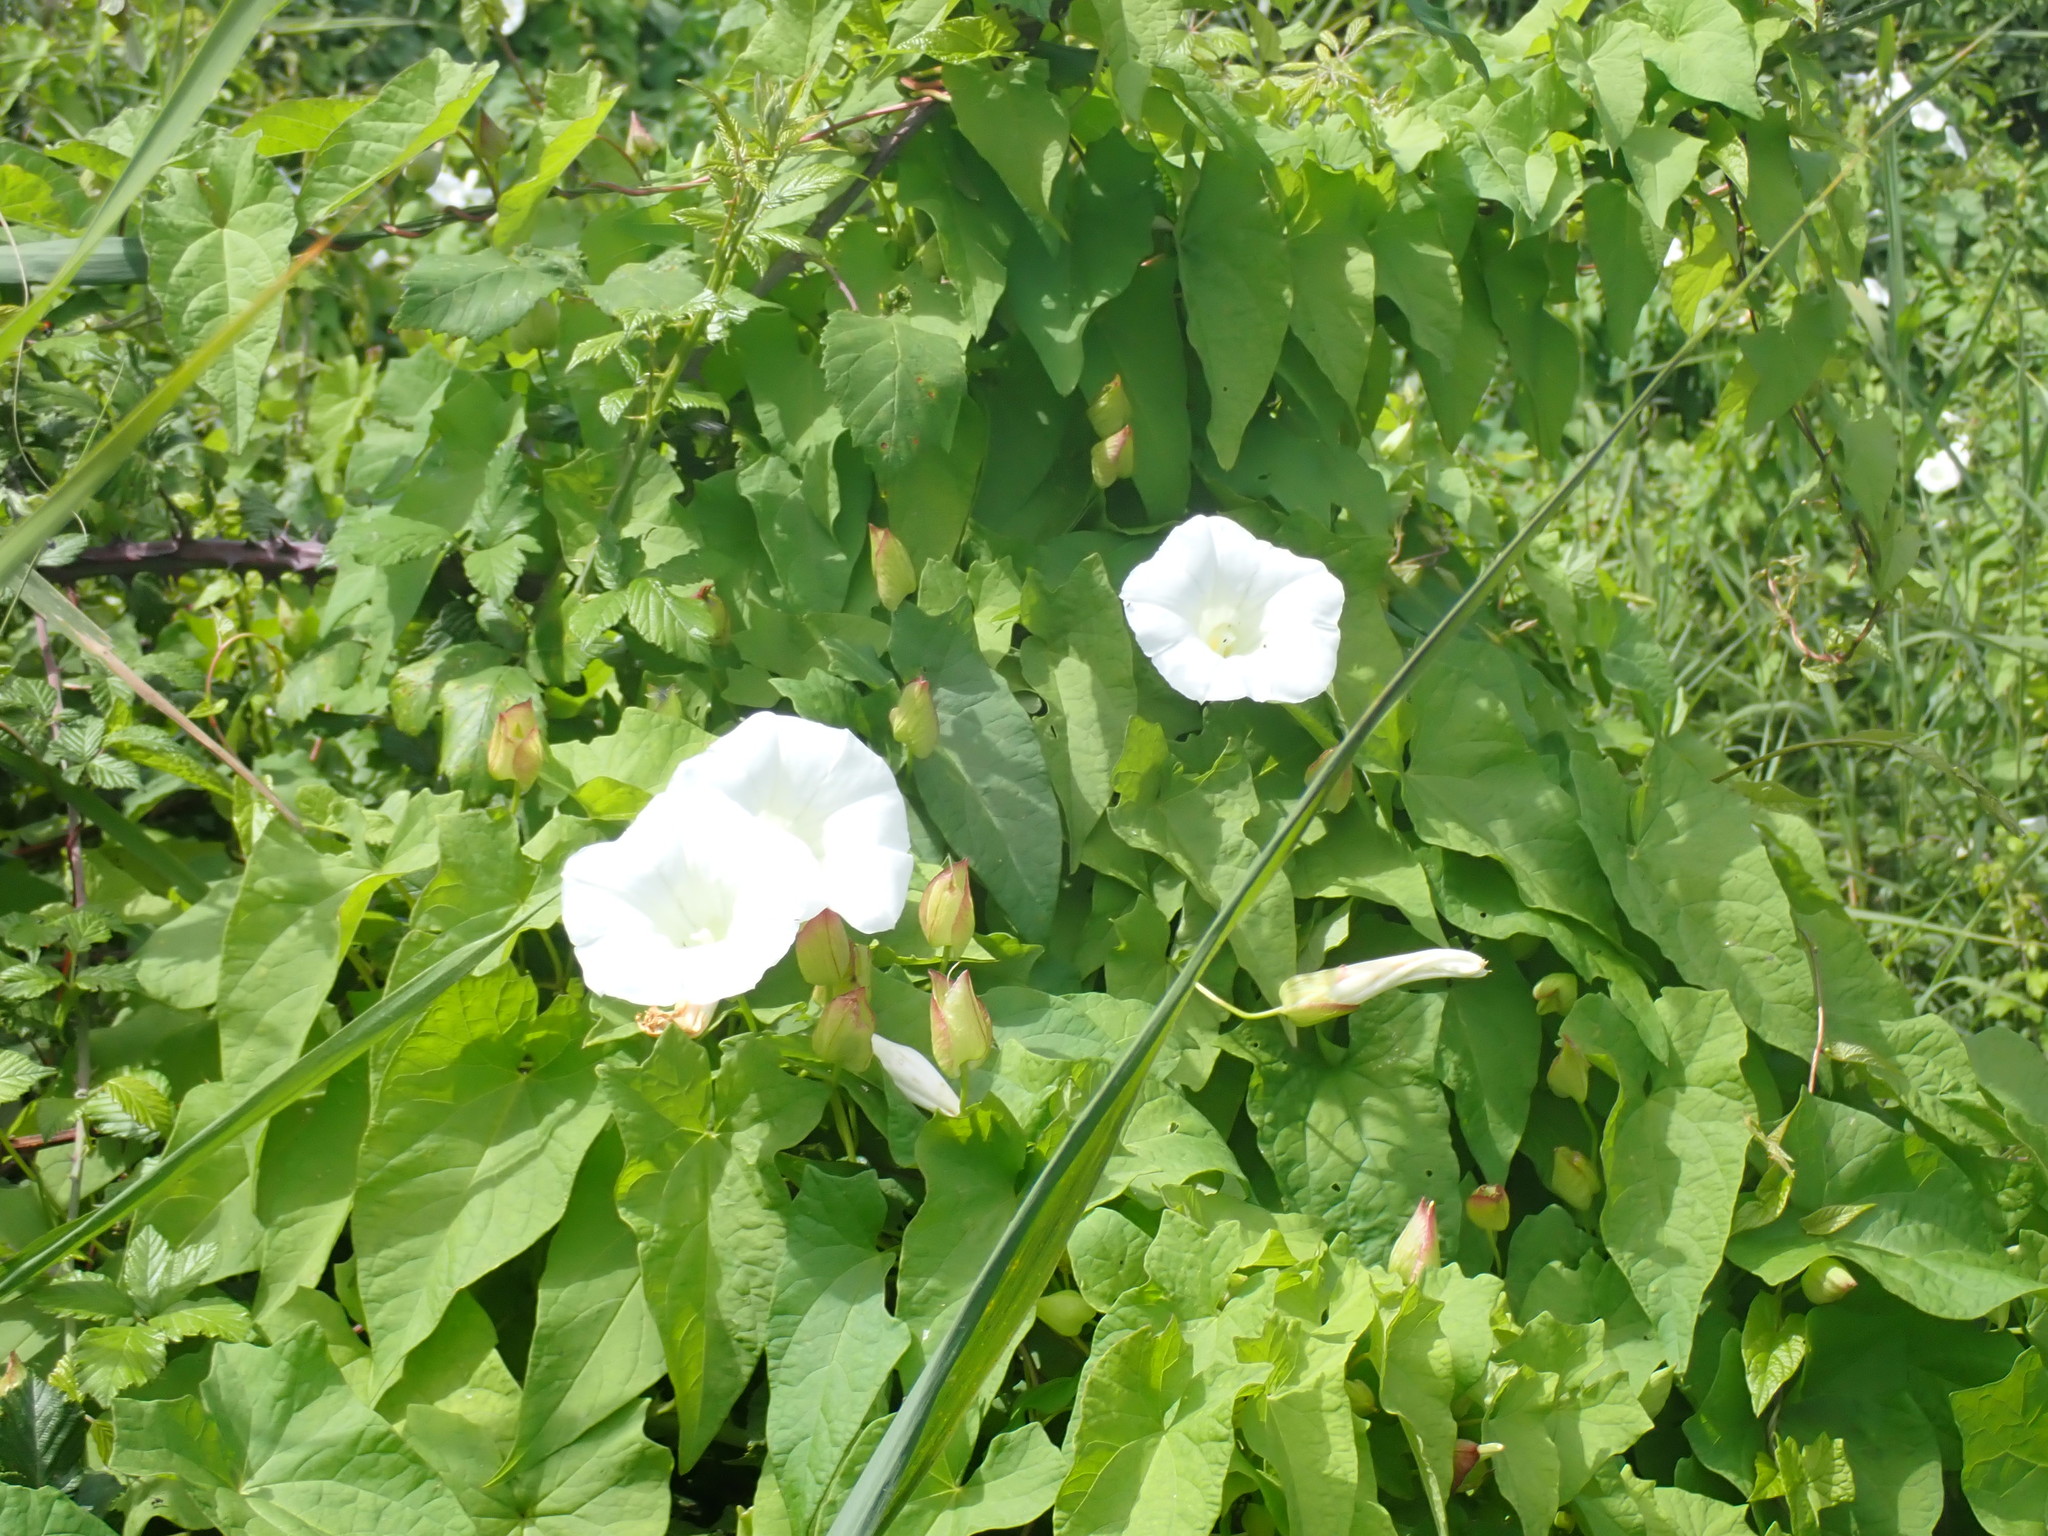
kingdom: Plantae
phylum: Tracheophyta
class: Magnoliopsida
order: Solanales
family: Convolvulaceae
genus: Calystegia
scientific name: Calystegia silvatica
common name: Large bindweed
